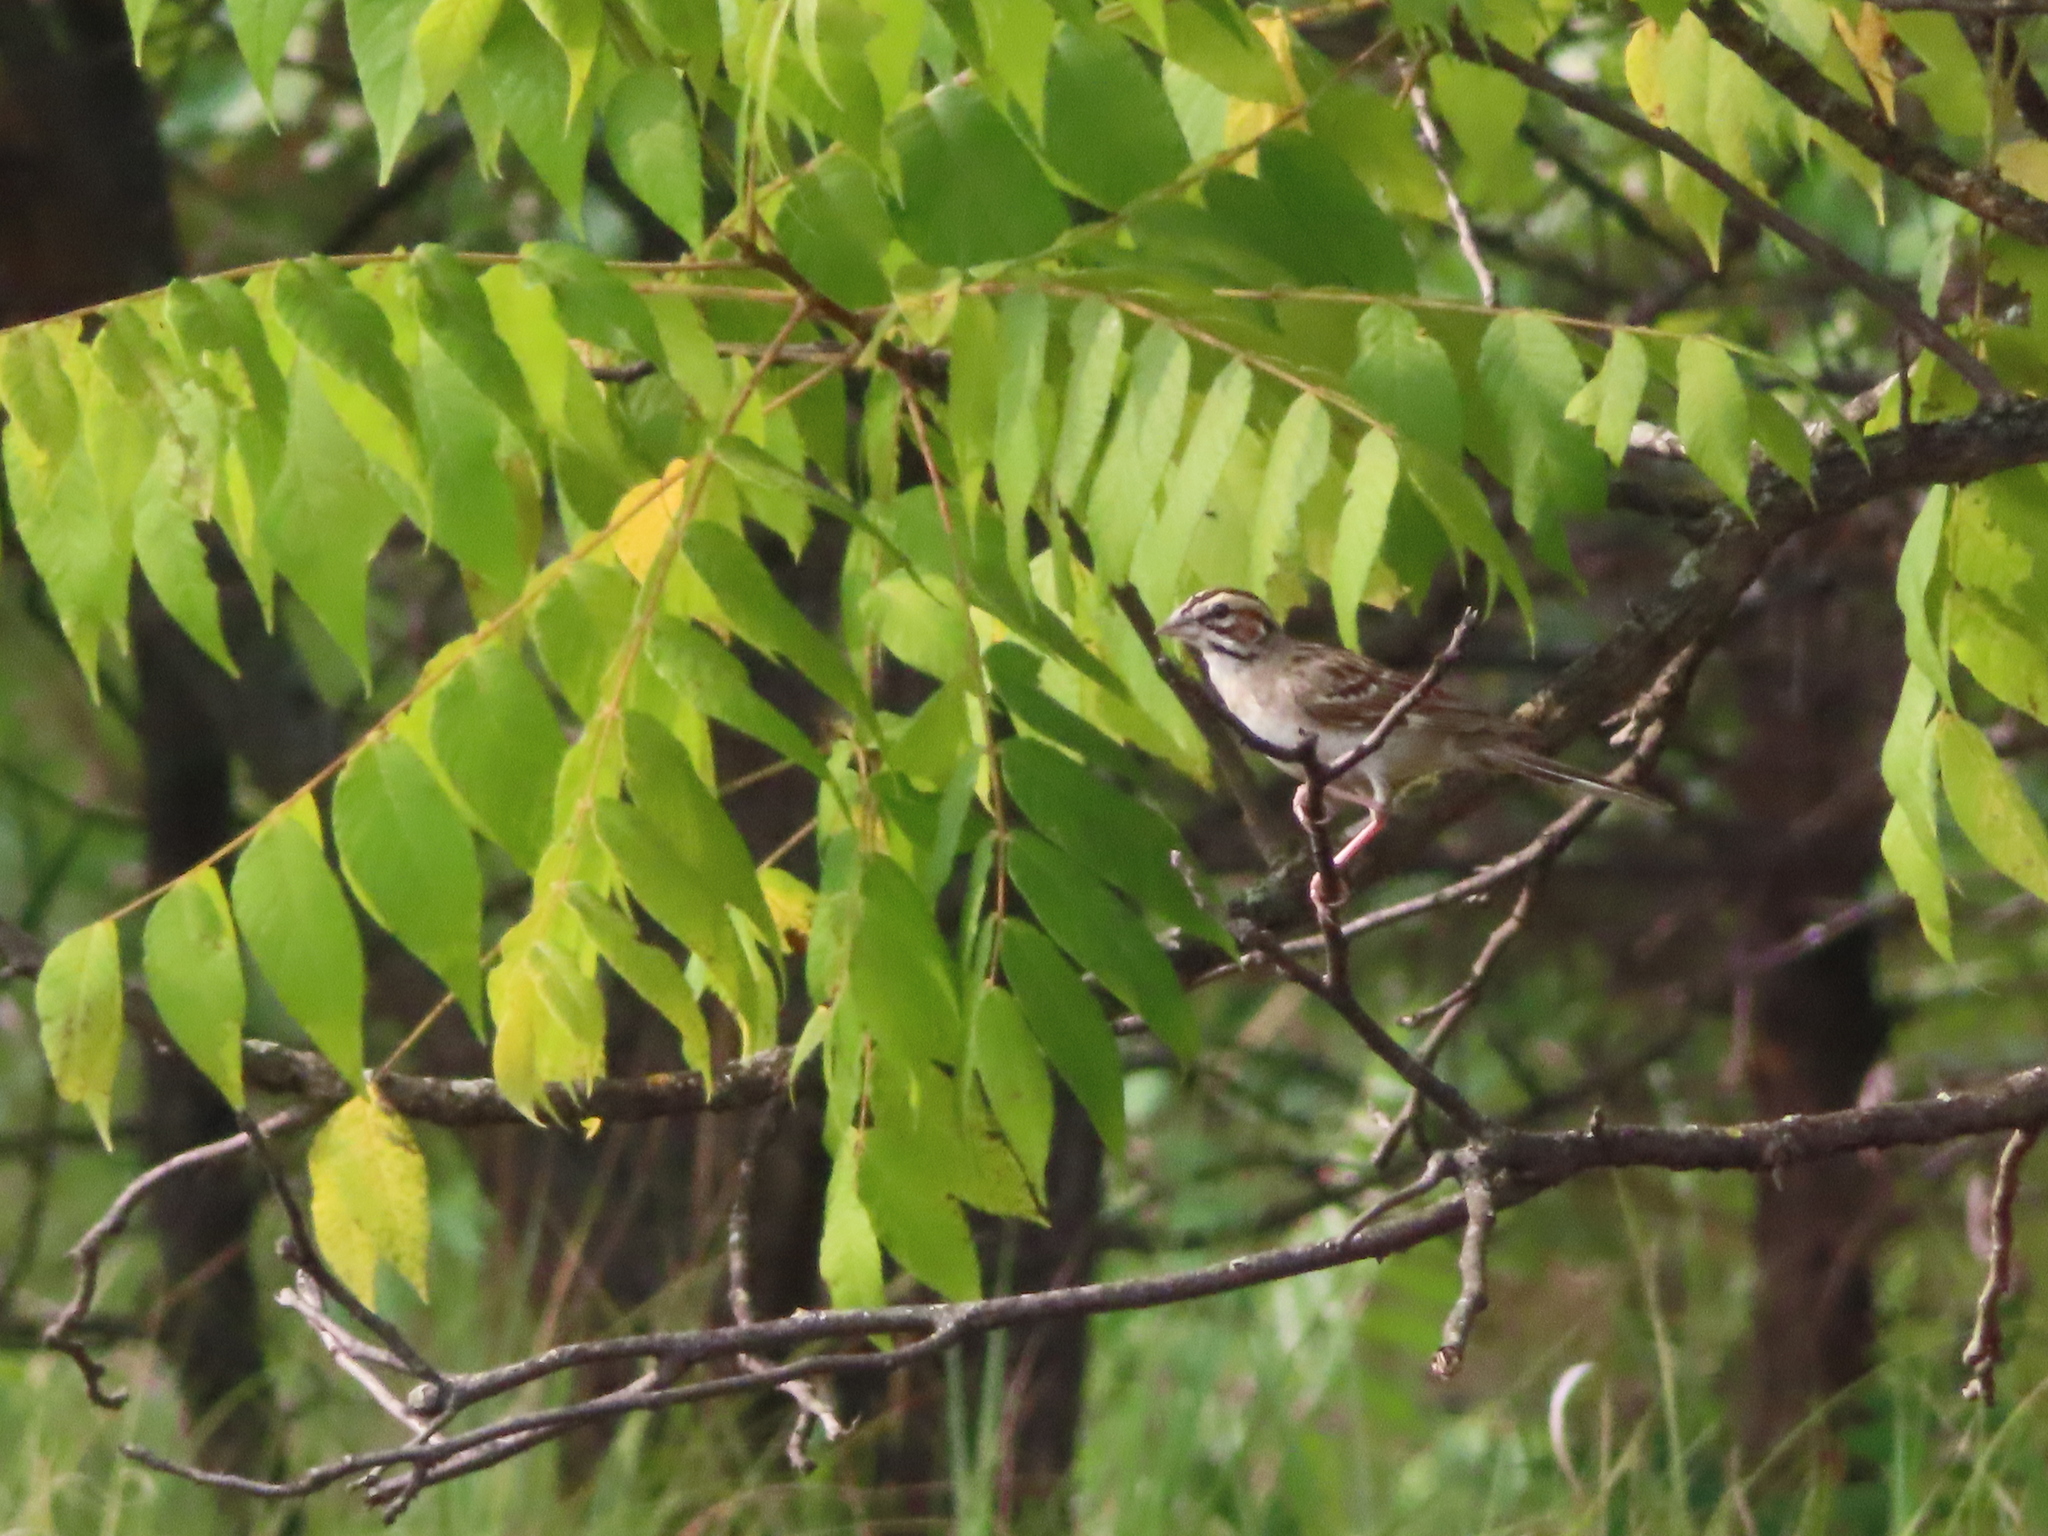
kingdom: Animalia
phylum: Chordata
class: Aves
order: Passeriformes
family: Passerellidae
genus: Chondestes
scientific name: Chondestes grammacus
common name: Lark sparrow
